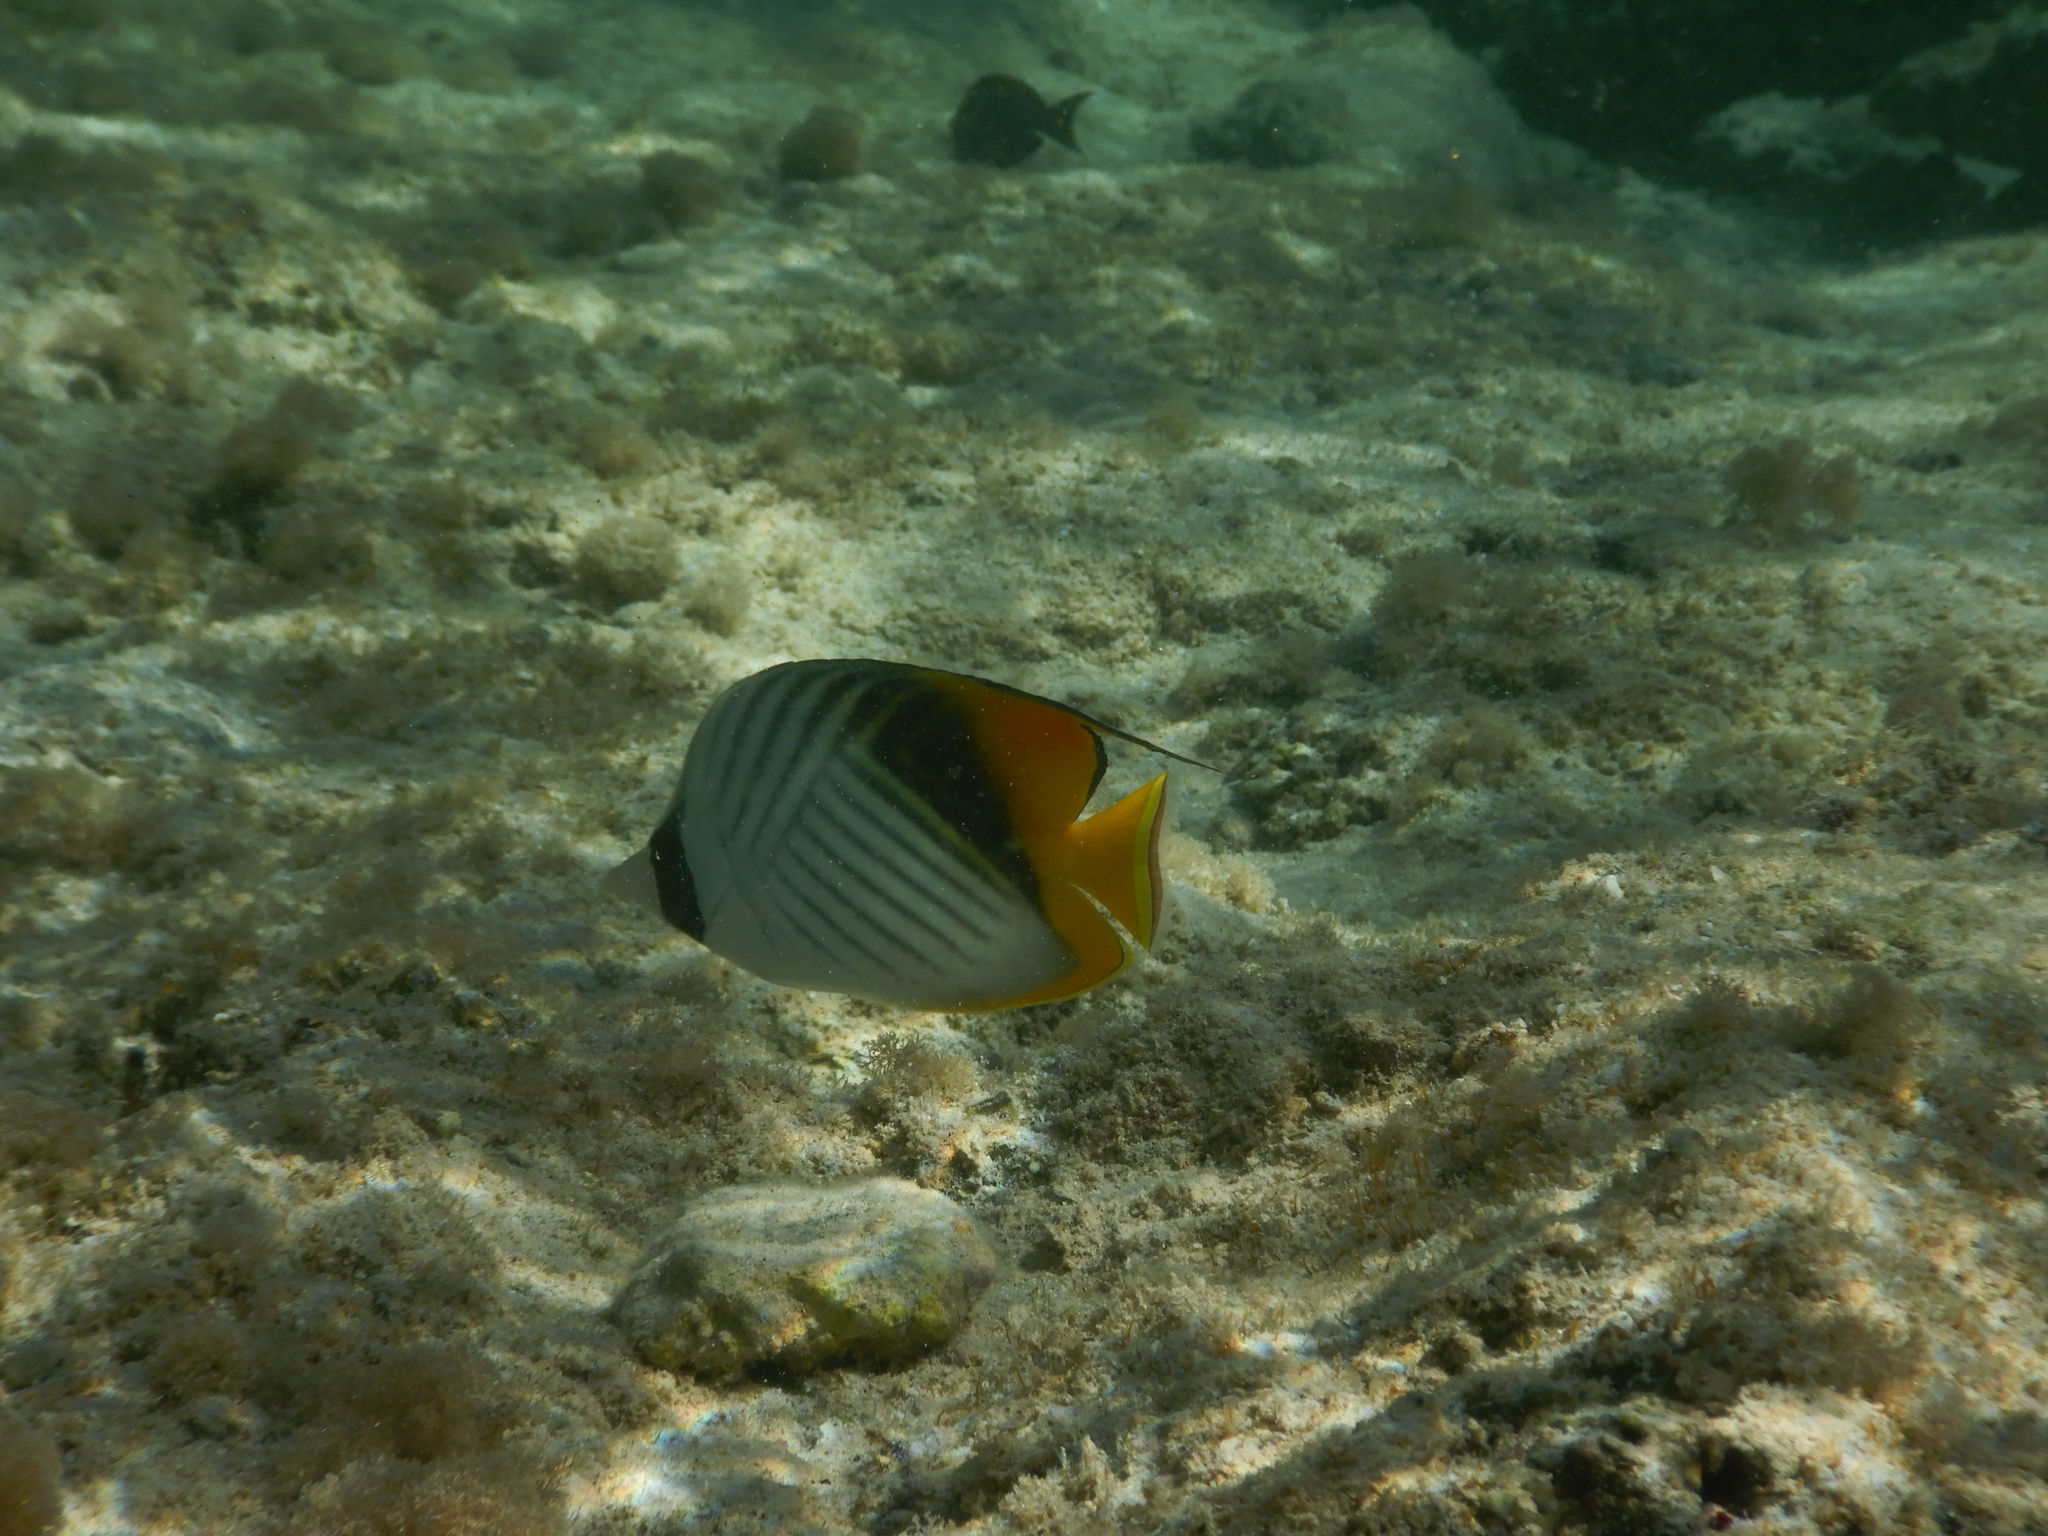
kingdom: Animalia
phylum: Chordata
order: Perciformes
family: Chaetodontidae
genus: Chaetodon
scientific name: Chaetodon auriga
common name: Threadfin butterflyfish
